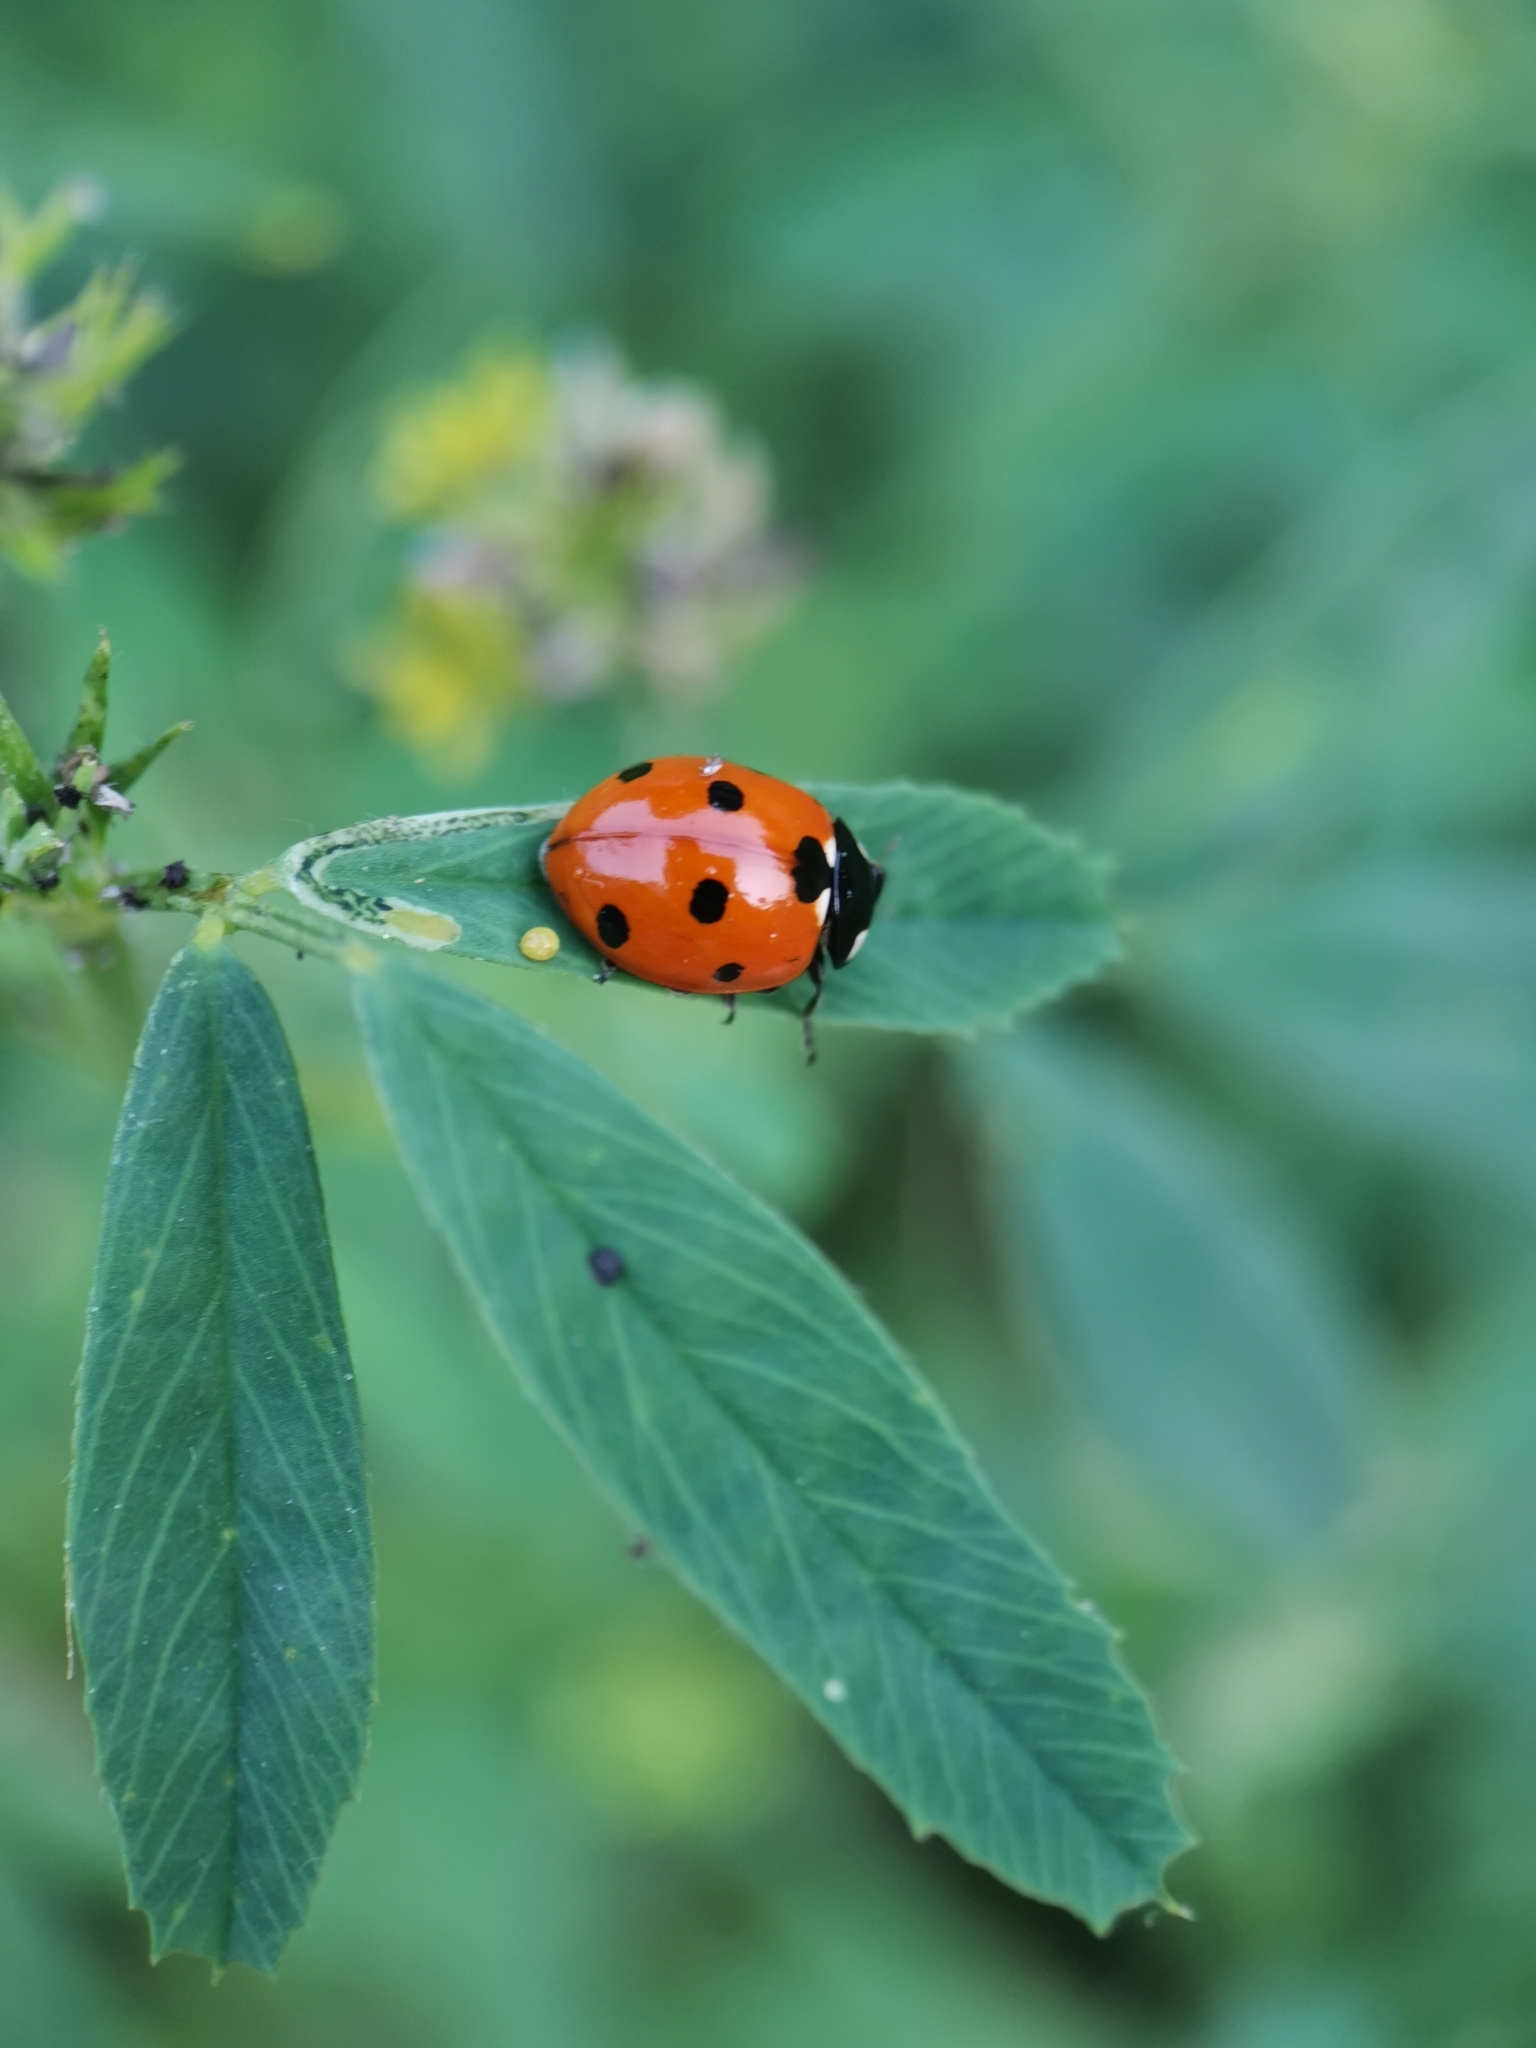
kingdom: Animalia
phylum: Arthropoda
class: Insecta
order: Coleoptera
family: Coccinellidae
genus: Coccinella
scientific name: Coccinella septempunctata
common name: Sevenspotted lady beetle
